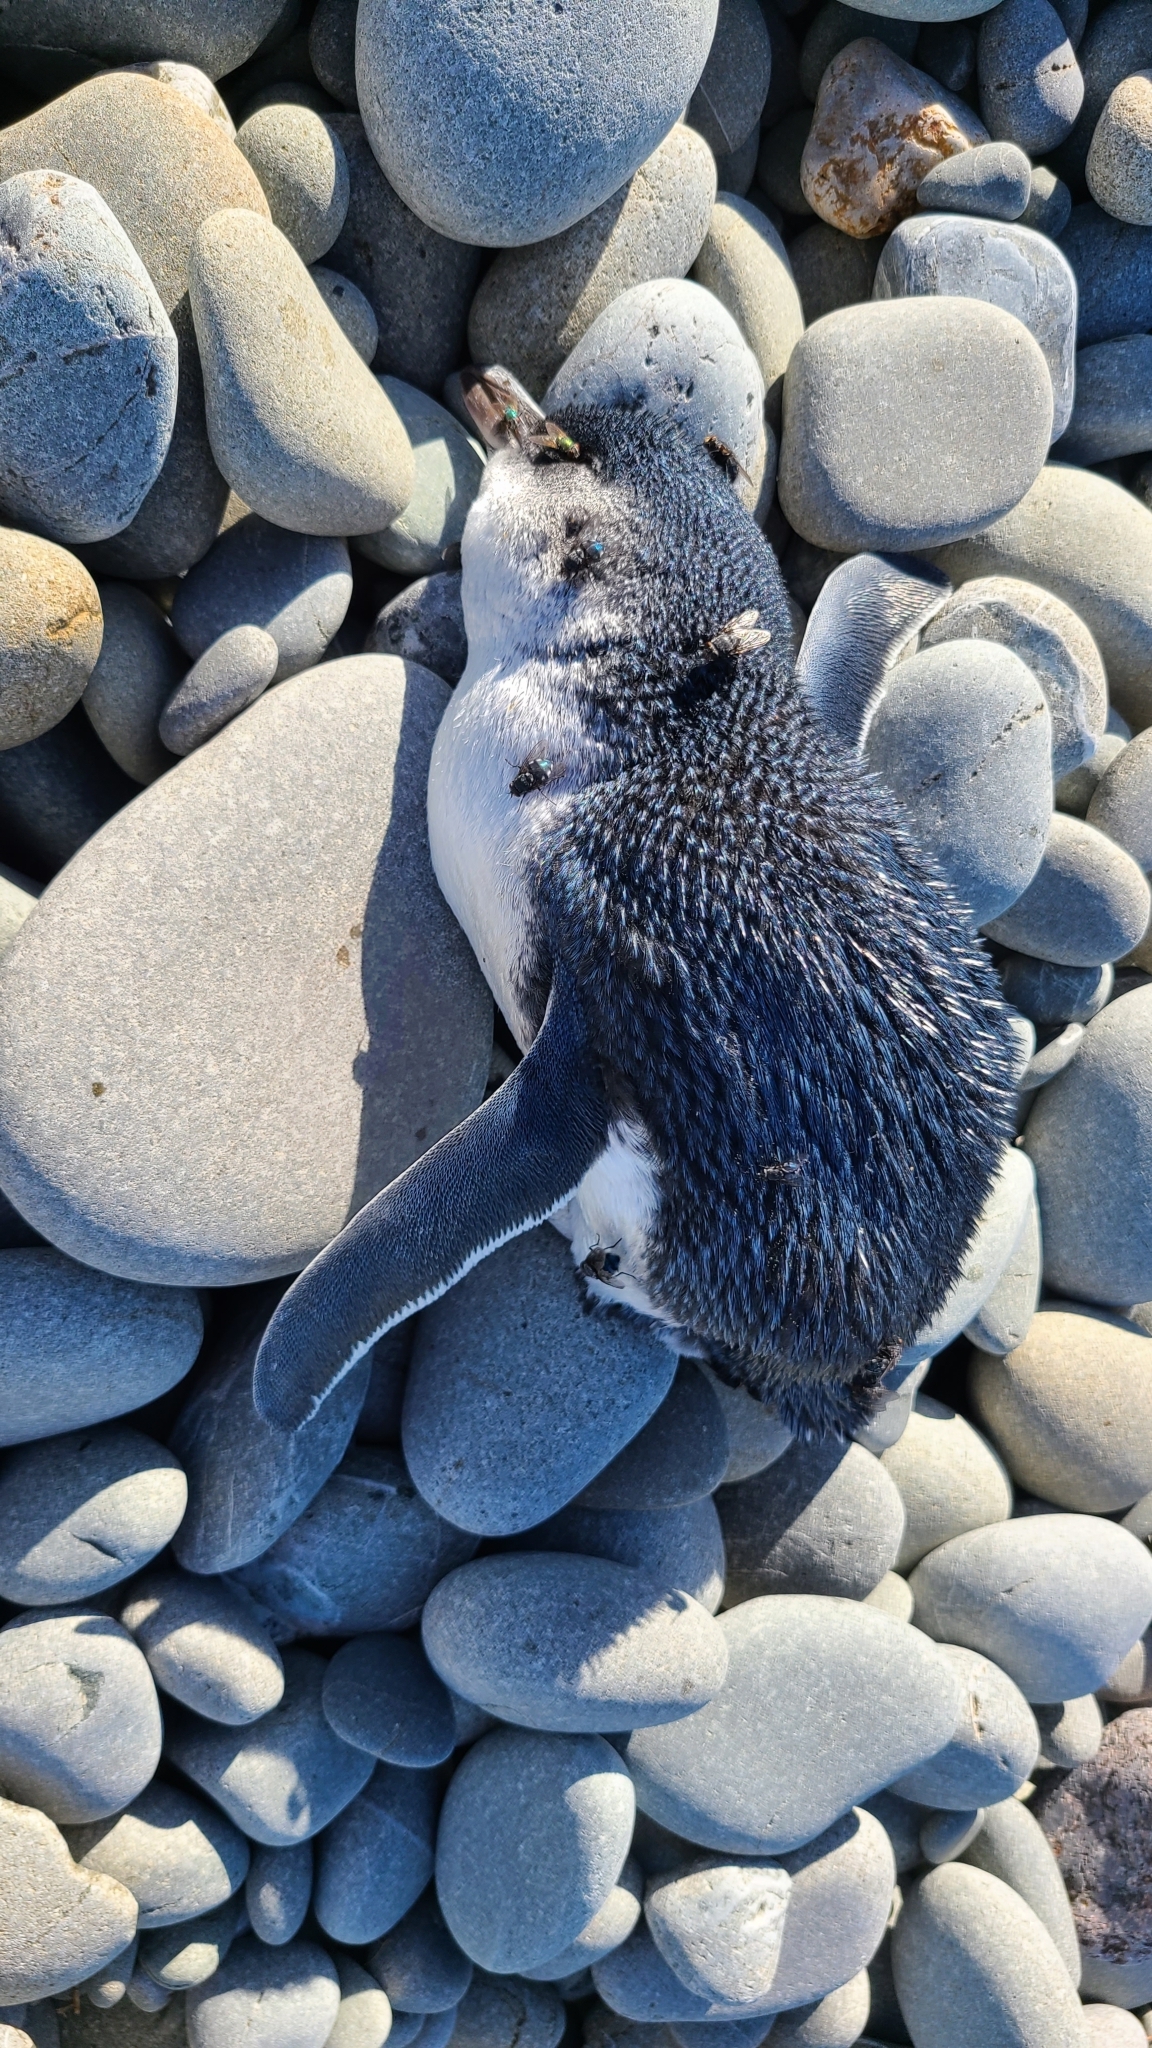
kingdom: Animalia
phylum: Chordata
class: Aves
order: Sphenisciformes
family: Spheniscidae
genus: Eudyptula
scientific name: Eudyptula minor
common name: Little penguin
